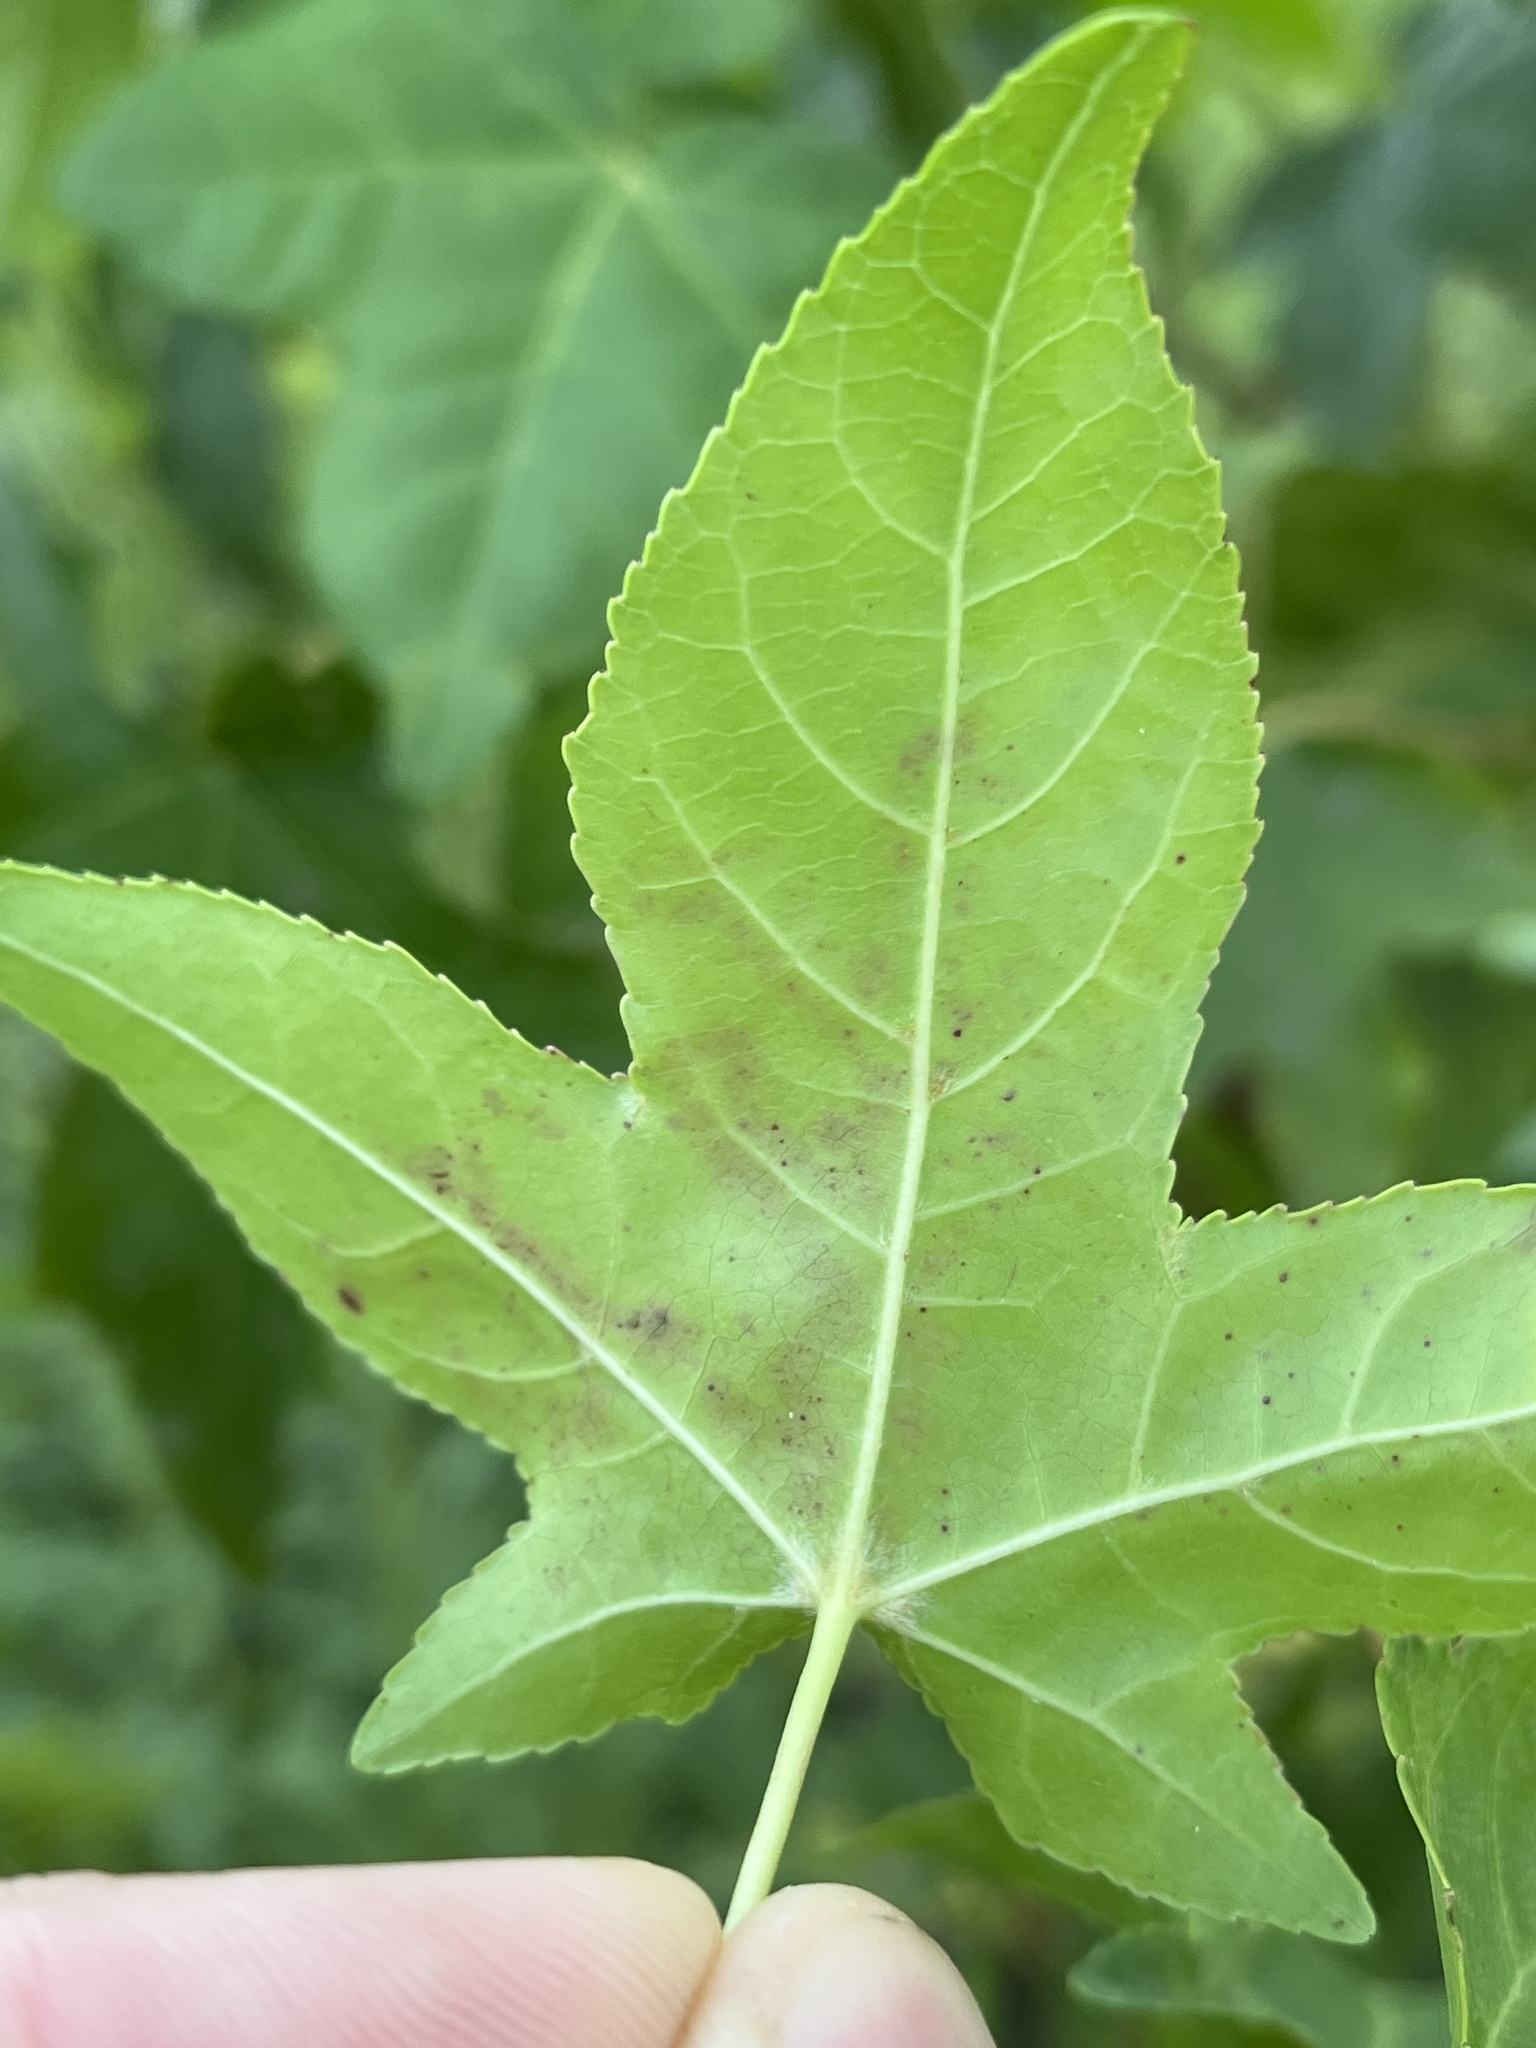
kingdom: Animalia
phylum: Arthropoda
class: Insecta
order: Lepidoptera
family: Gracillariidae
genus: Phyllocnistis
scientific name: Phyllocnistis liquidambarisella
